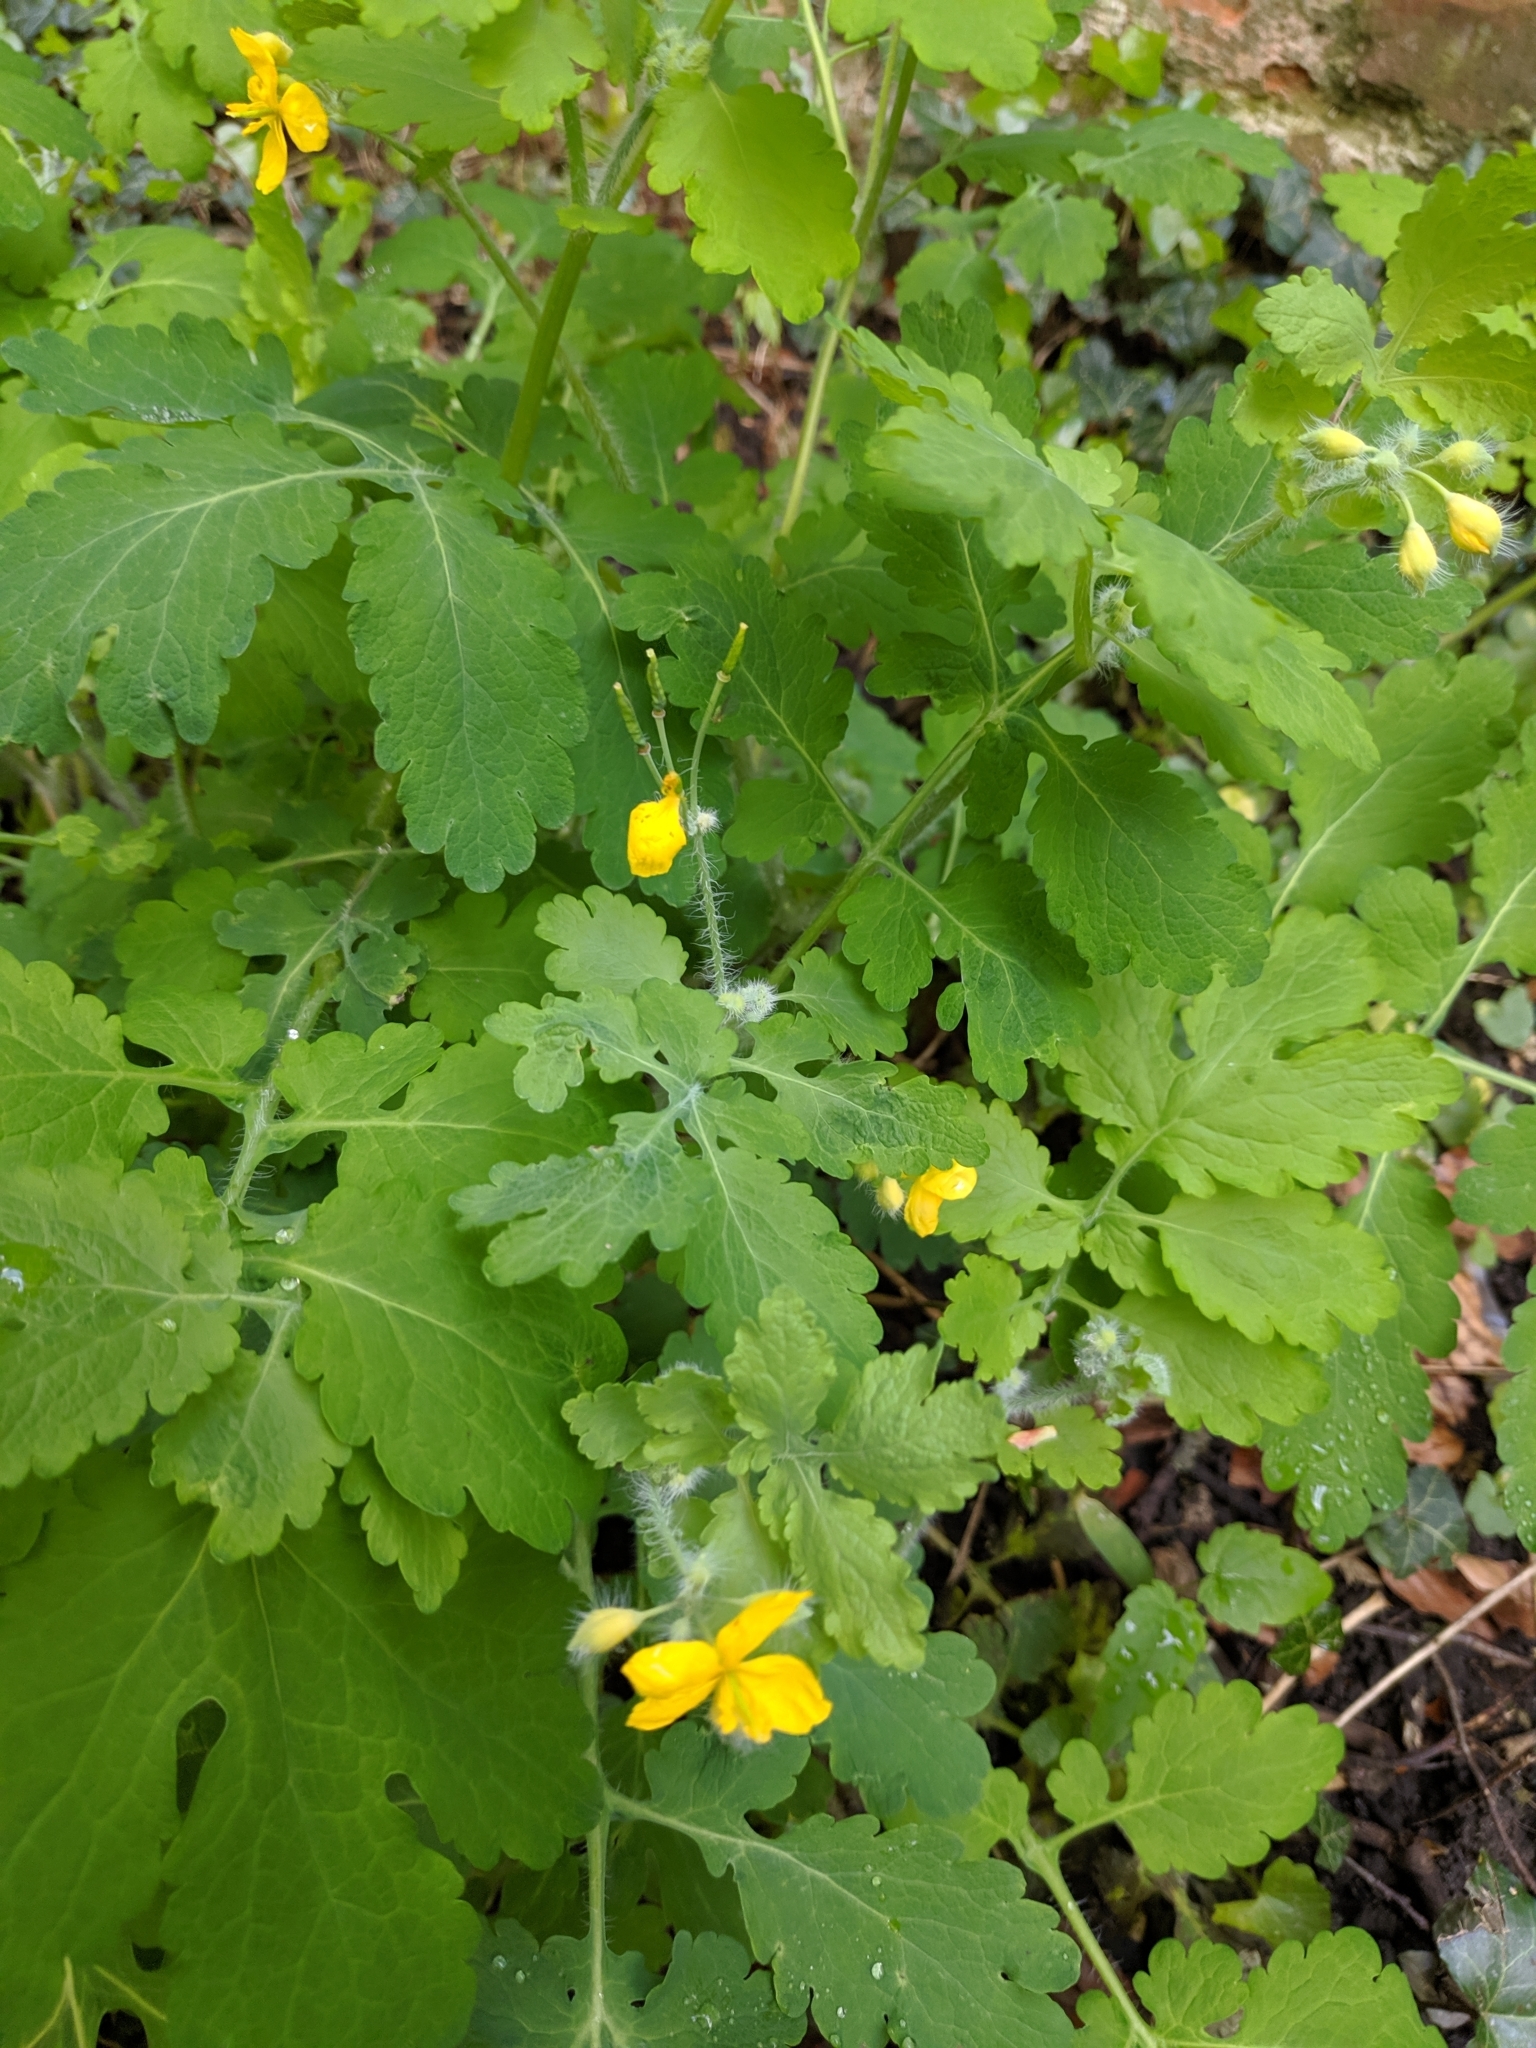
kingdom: Plantae
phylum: Tracheophyta
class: Magnoliopsida
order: Ranunculales
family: Papaveraceae
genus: Chelidonium
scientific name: Chelidonium majus
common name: Greater celandine
